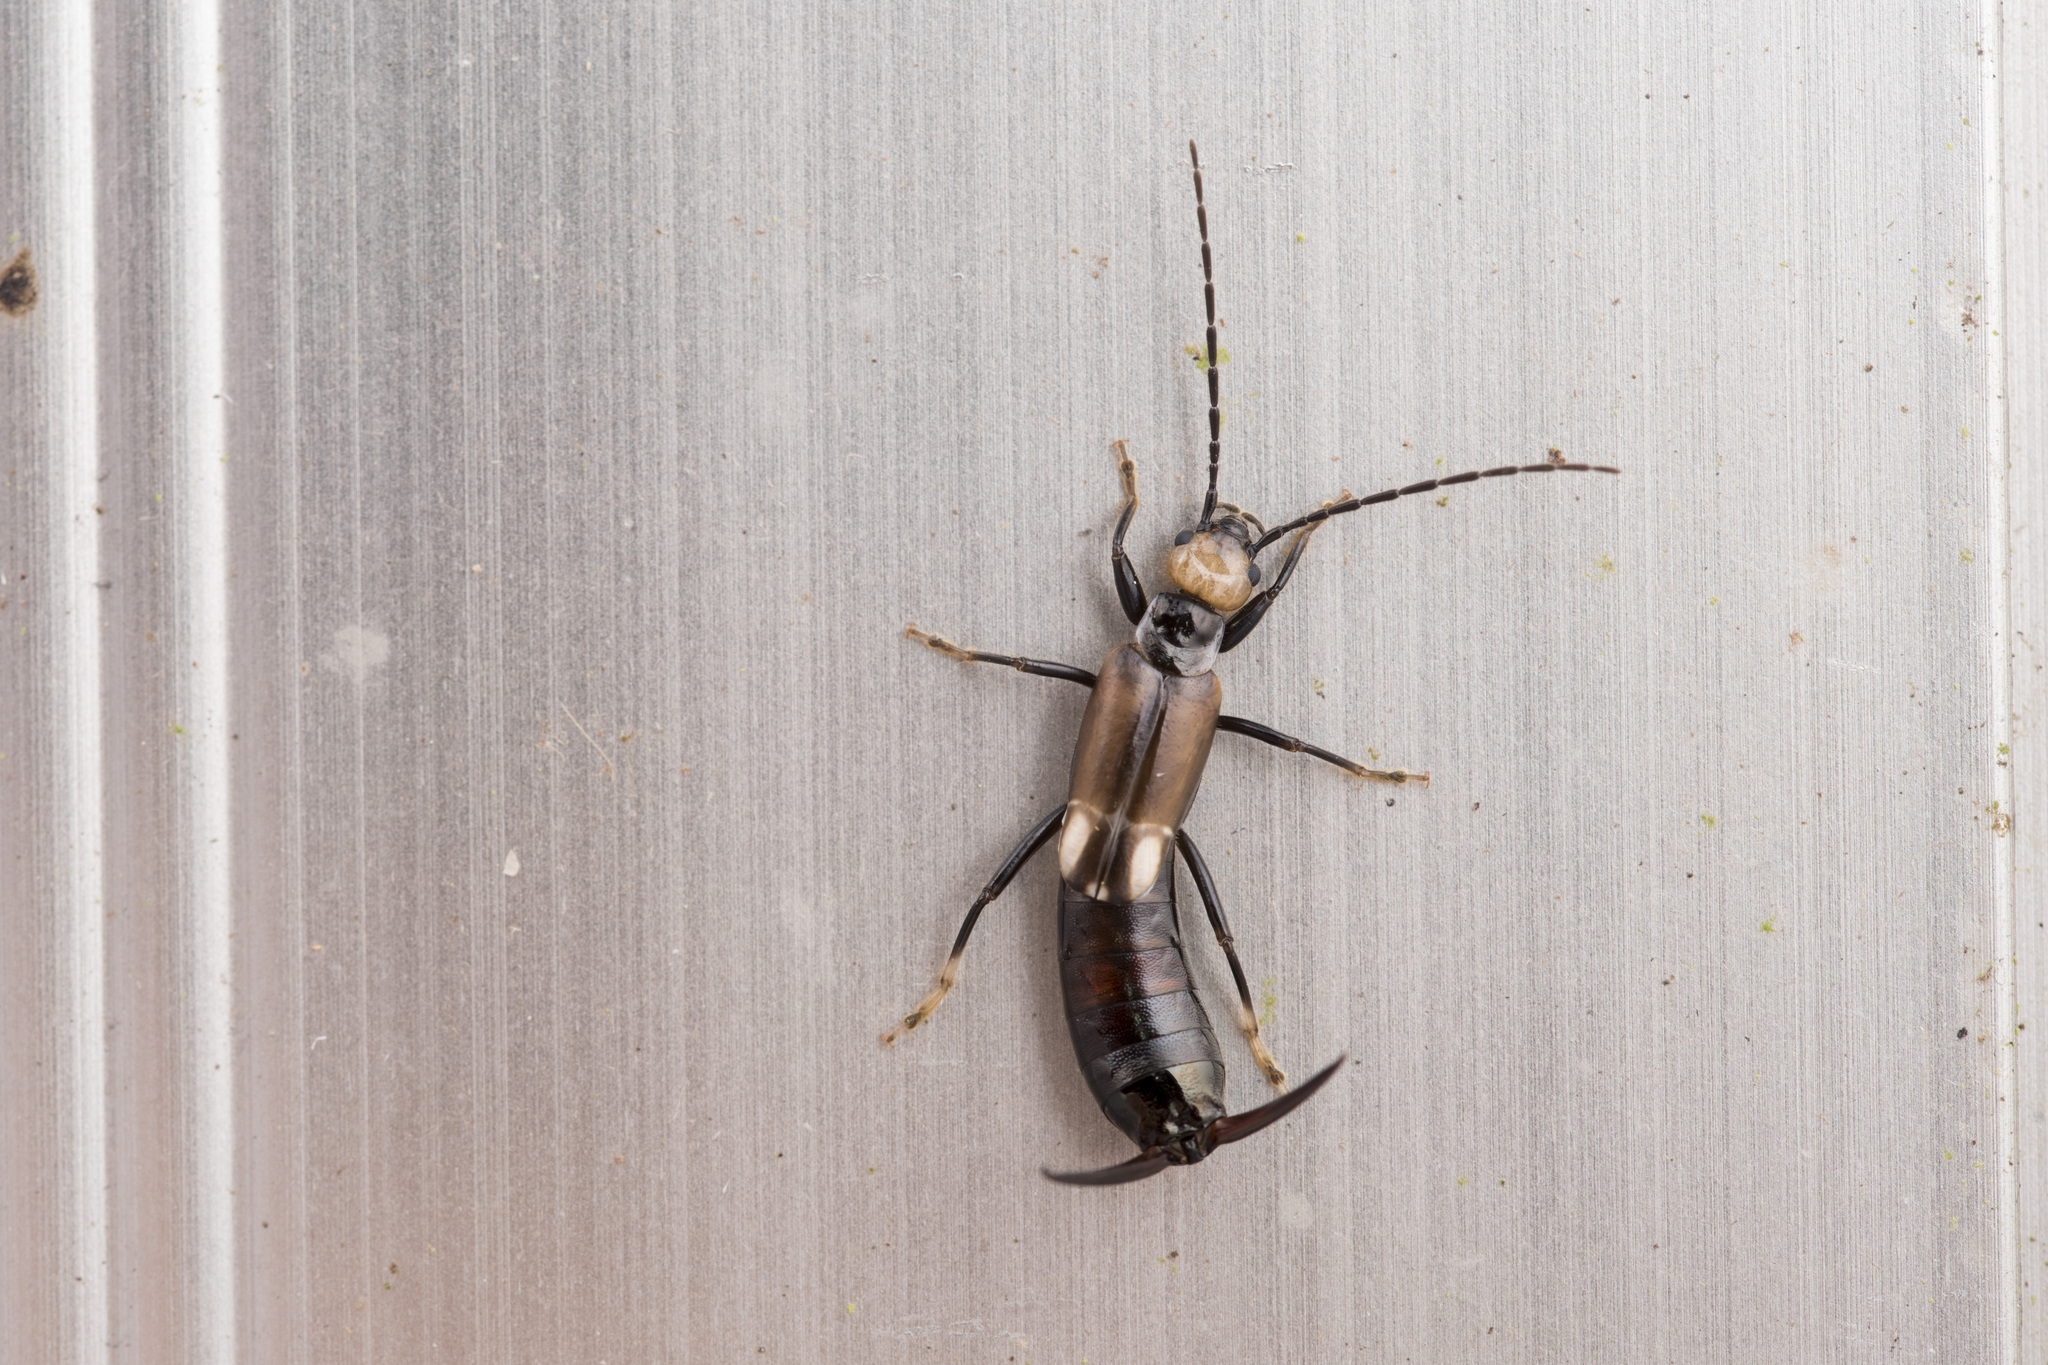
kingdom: Animalia
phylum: Arthropoda
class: Insecta
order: Dermaptera
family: Forficulidae
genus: Paratimomenus
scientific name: Paratimomenus flavocapitata
